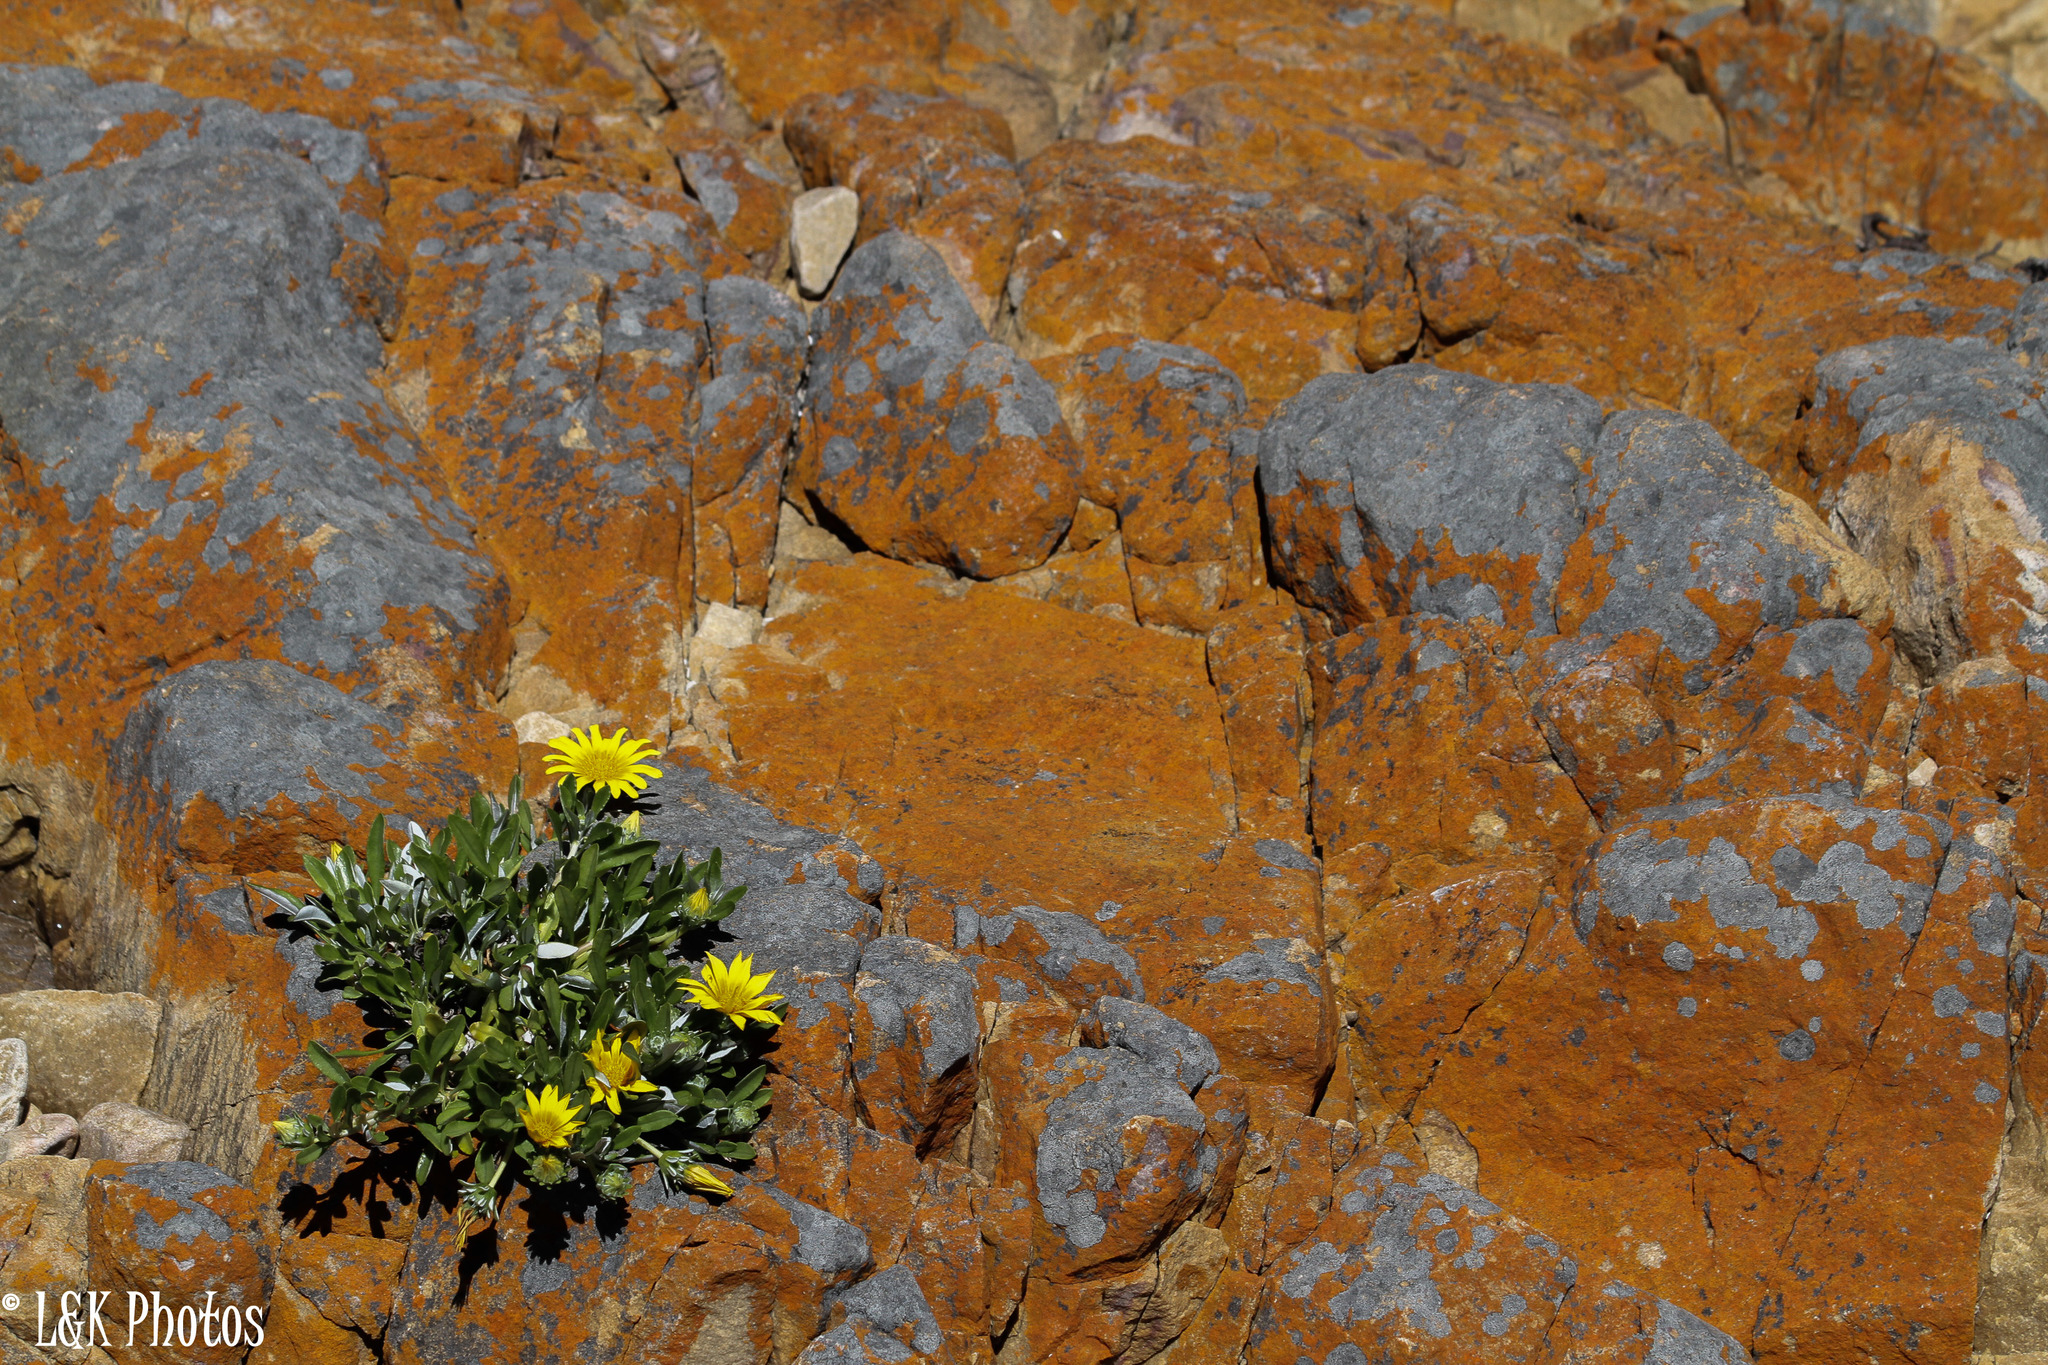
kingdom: Plantae
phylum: Tracheophyta
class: Magnoliopsida
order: Asterales
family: Asteraceae
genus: Gazania
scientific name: Gazania rigens
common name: Treasureflower
